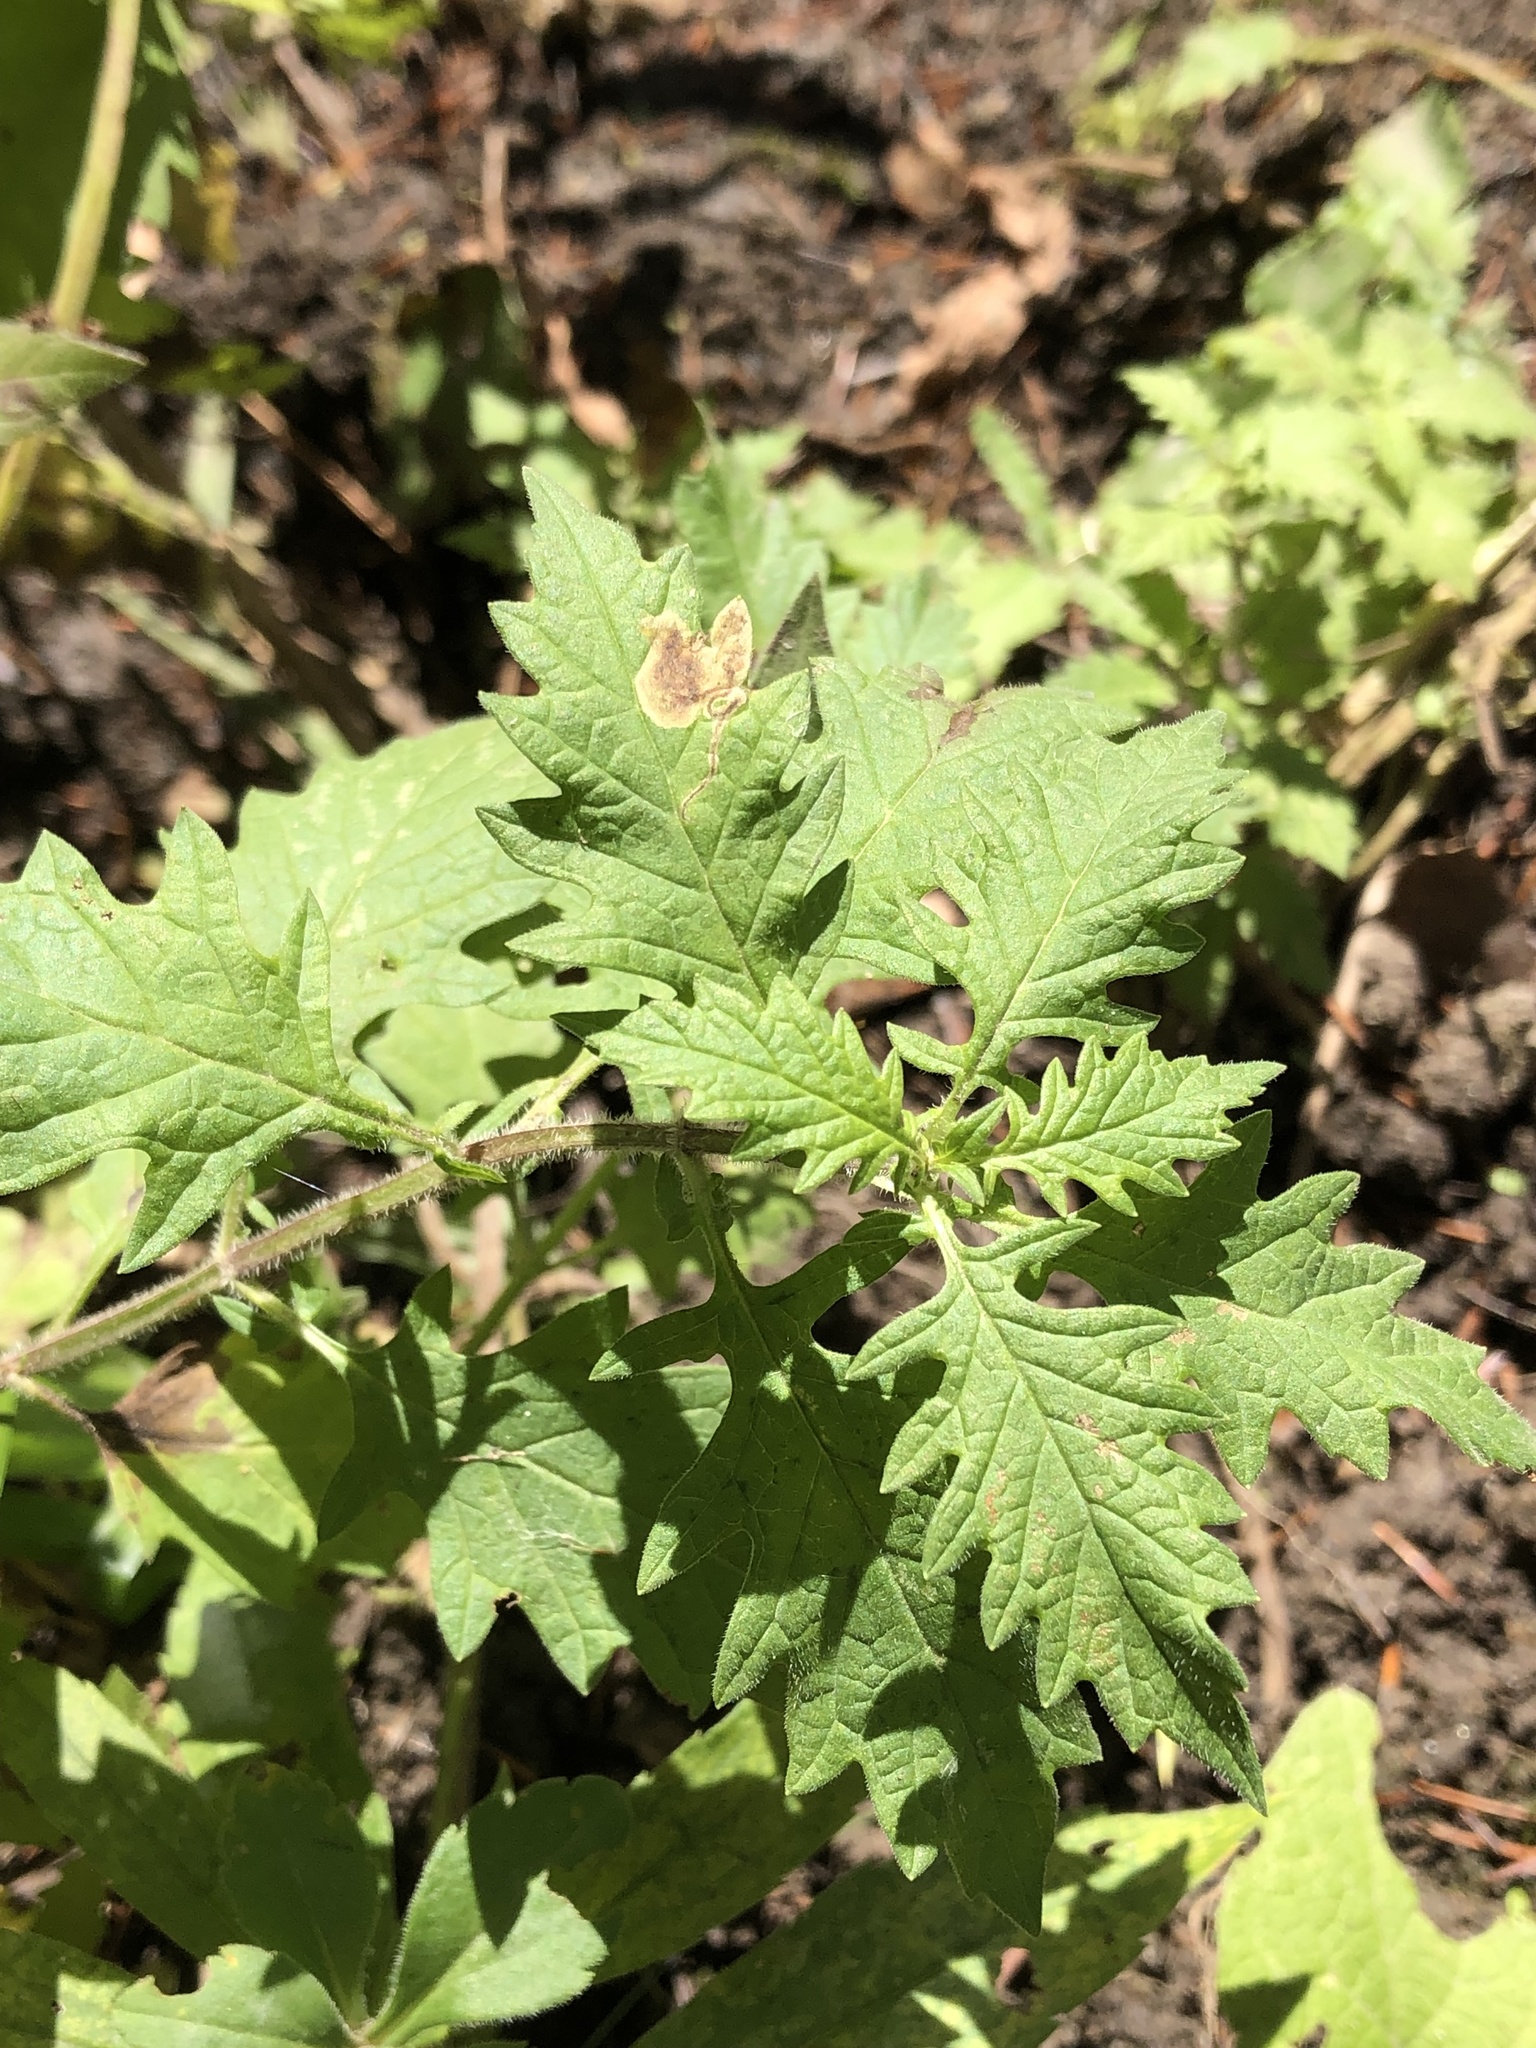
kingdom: Plantae
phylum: Tracheophyta
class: Magnoliopsida
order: Lamiales
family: Lamiaceae
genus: Lycopus
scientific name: Lycopus europaeus
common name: European bugleweed
